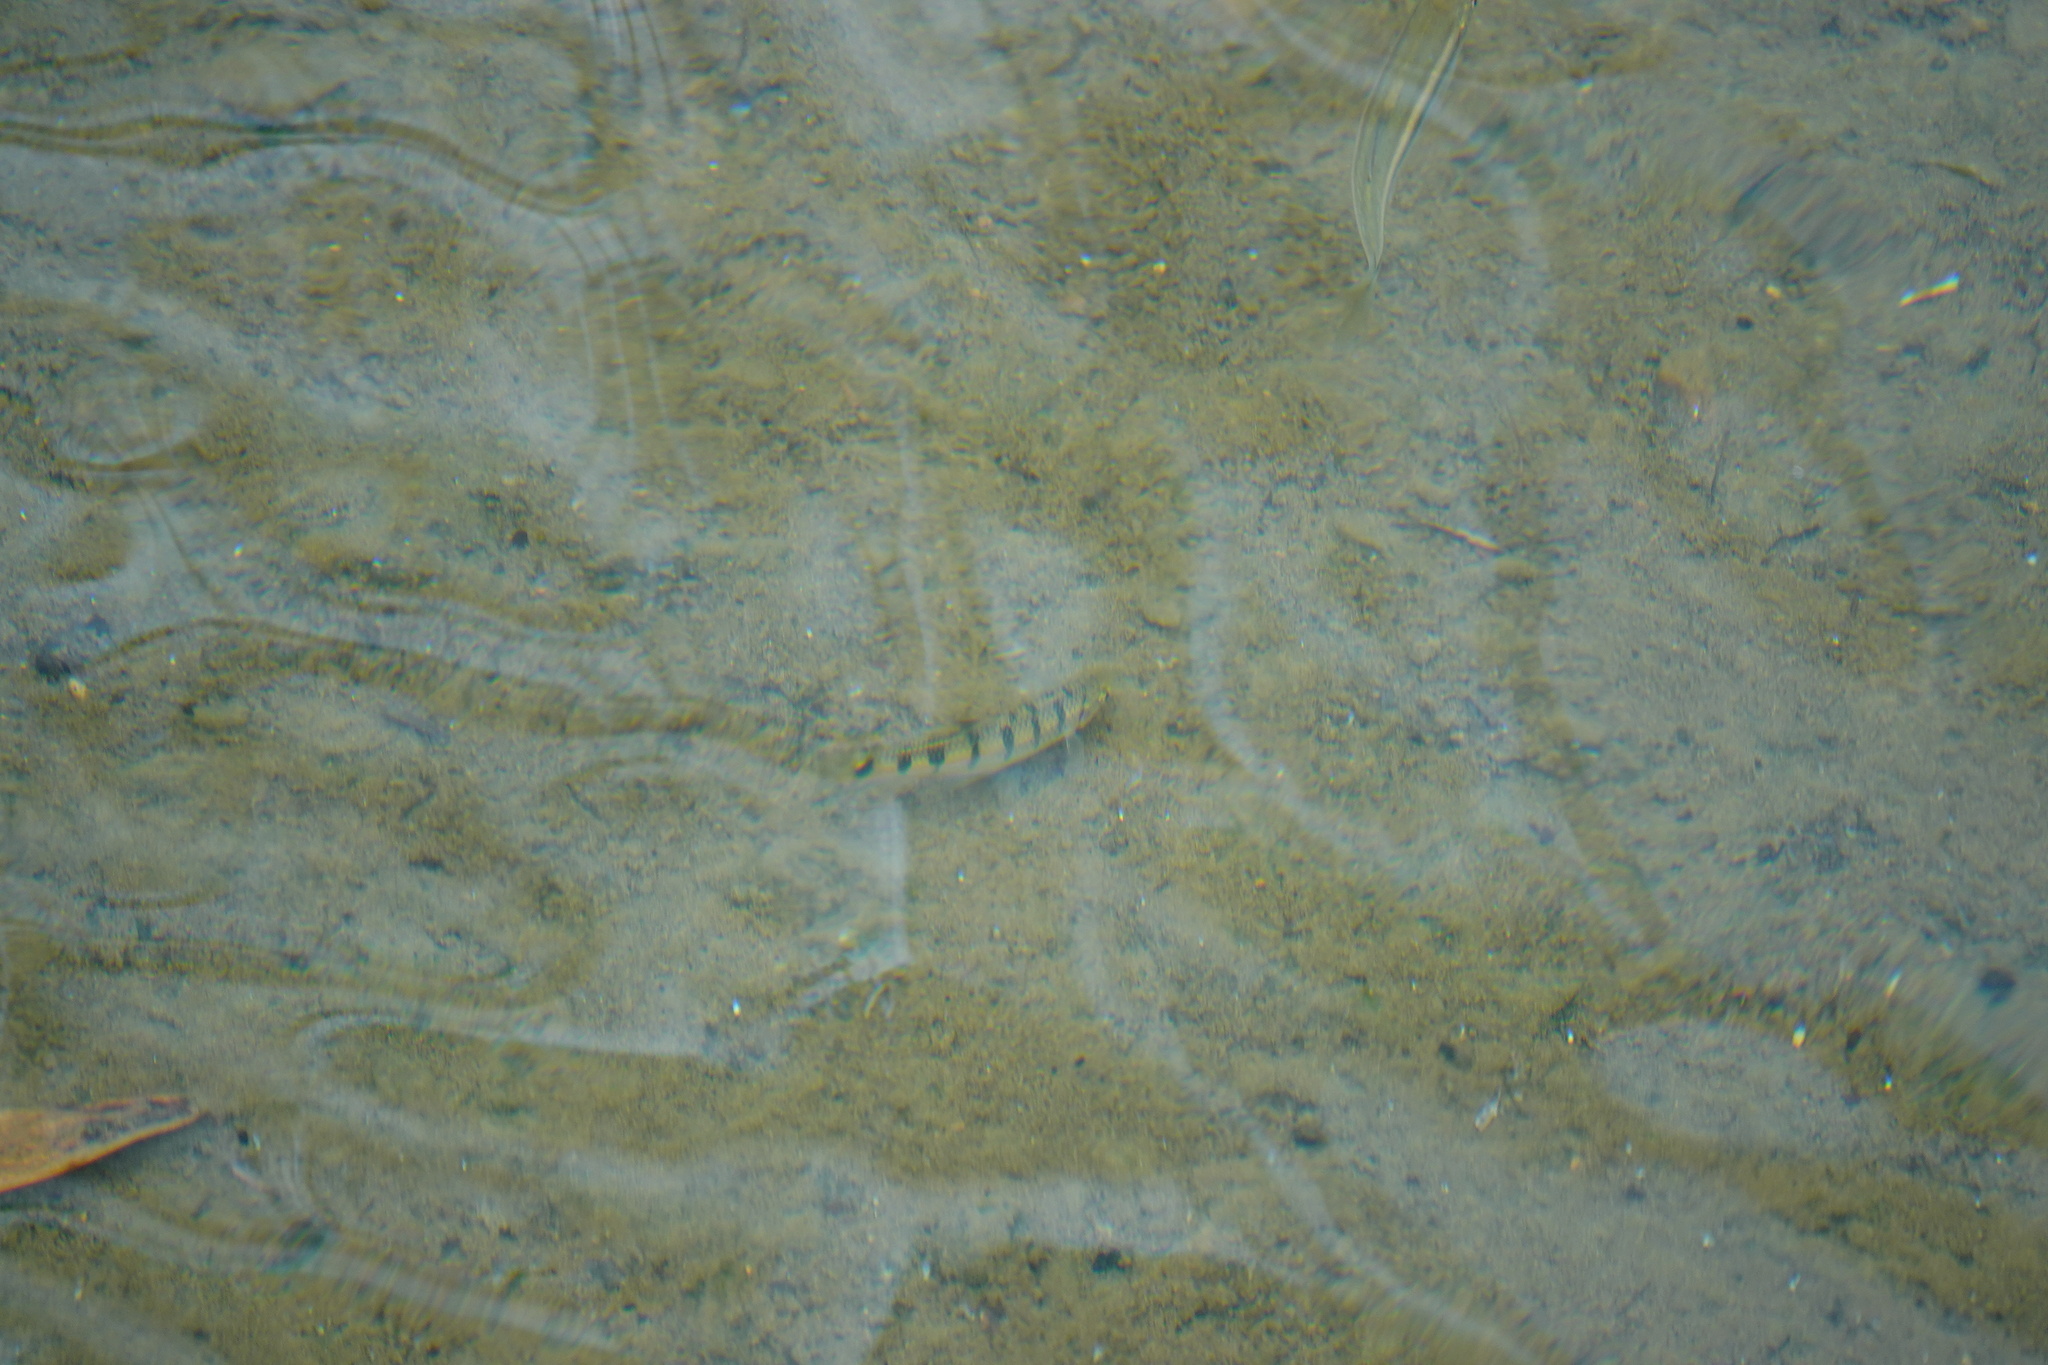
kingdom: Animalia
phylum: Chordata
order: Cypriniformes
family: Cyprinidae
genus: Acrossocheilus
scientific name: Acrossocheilus paradoxus
